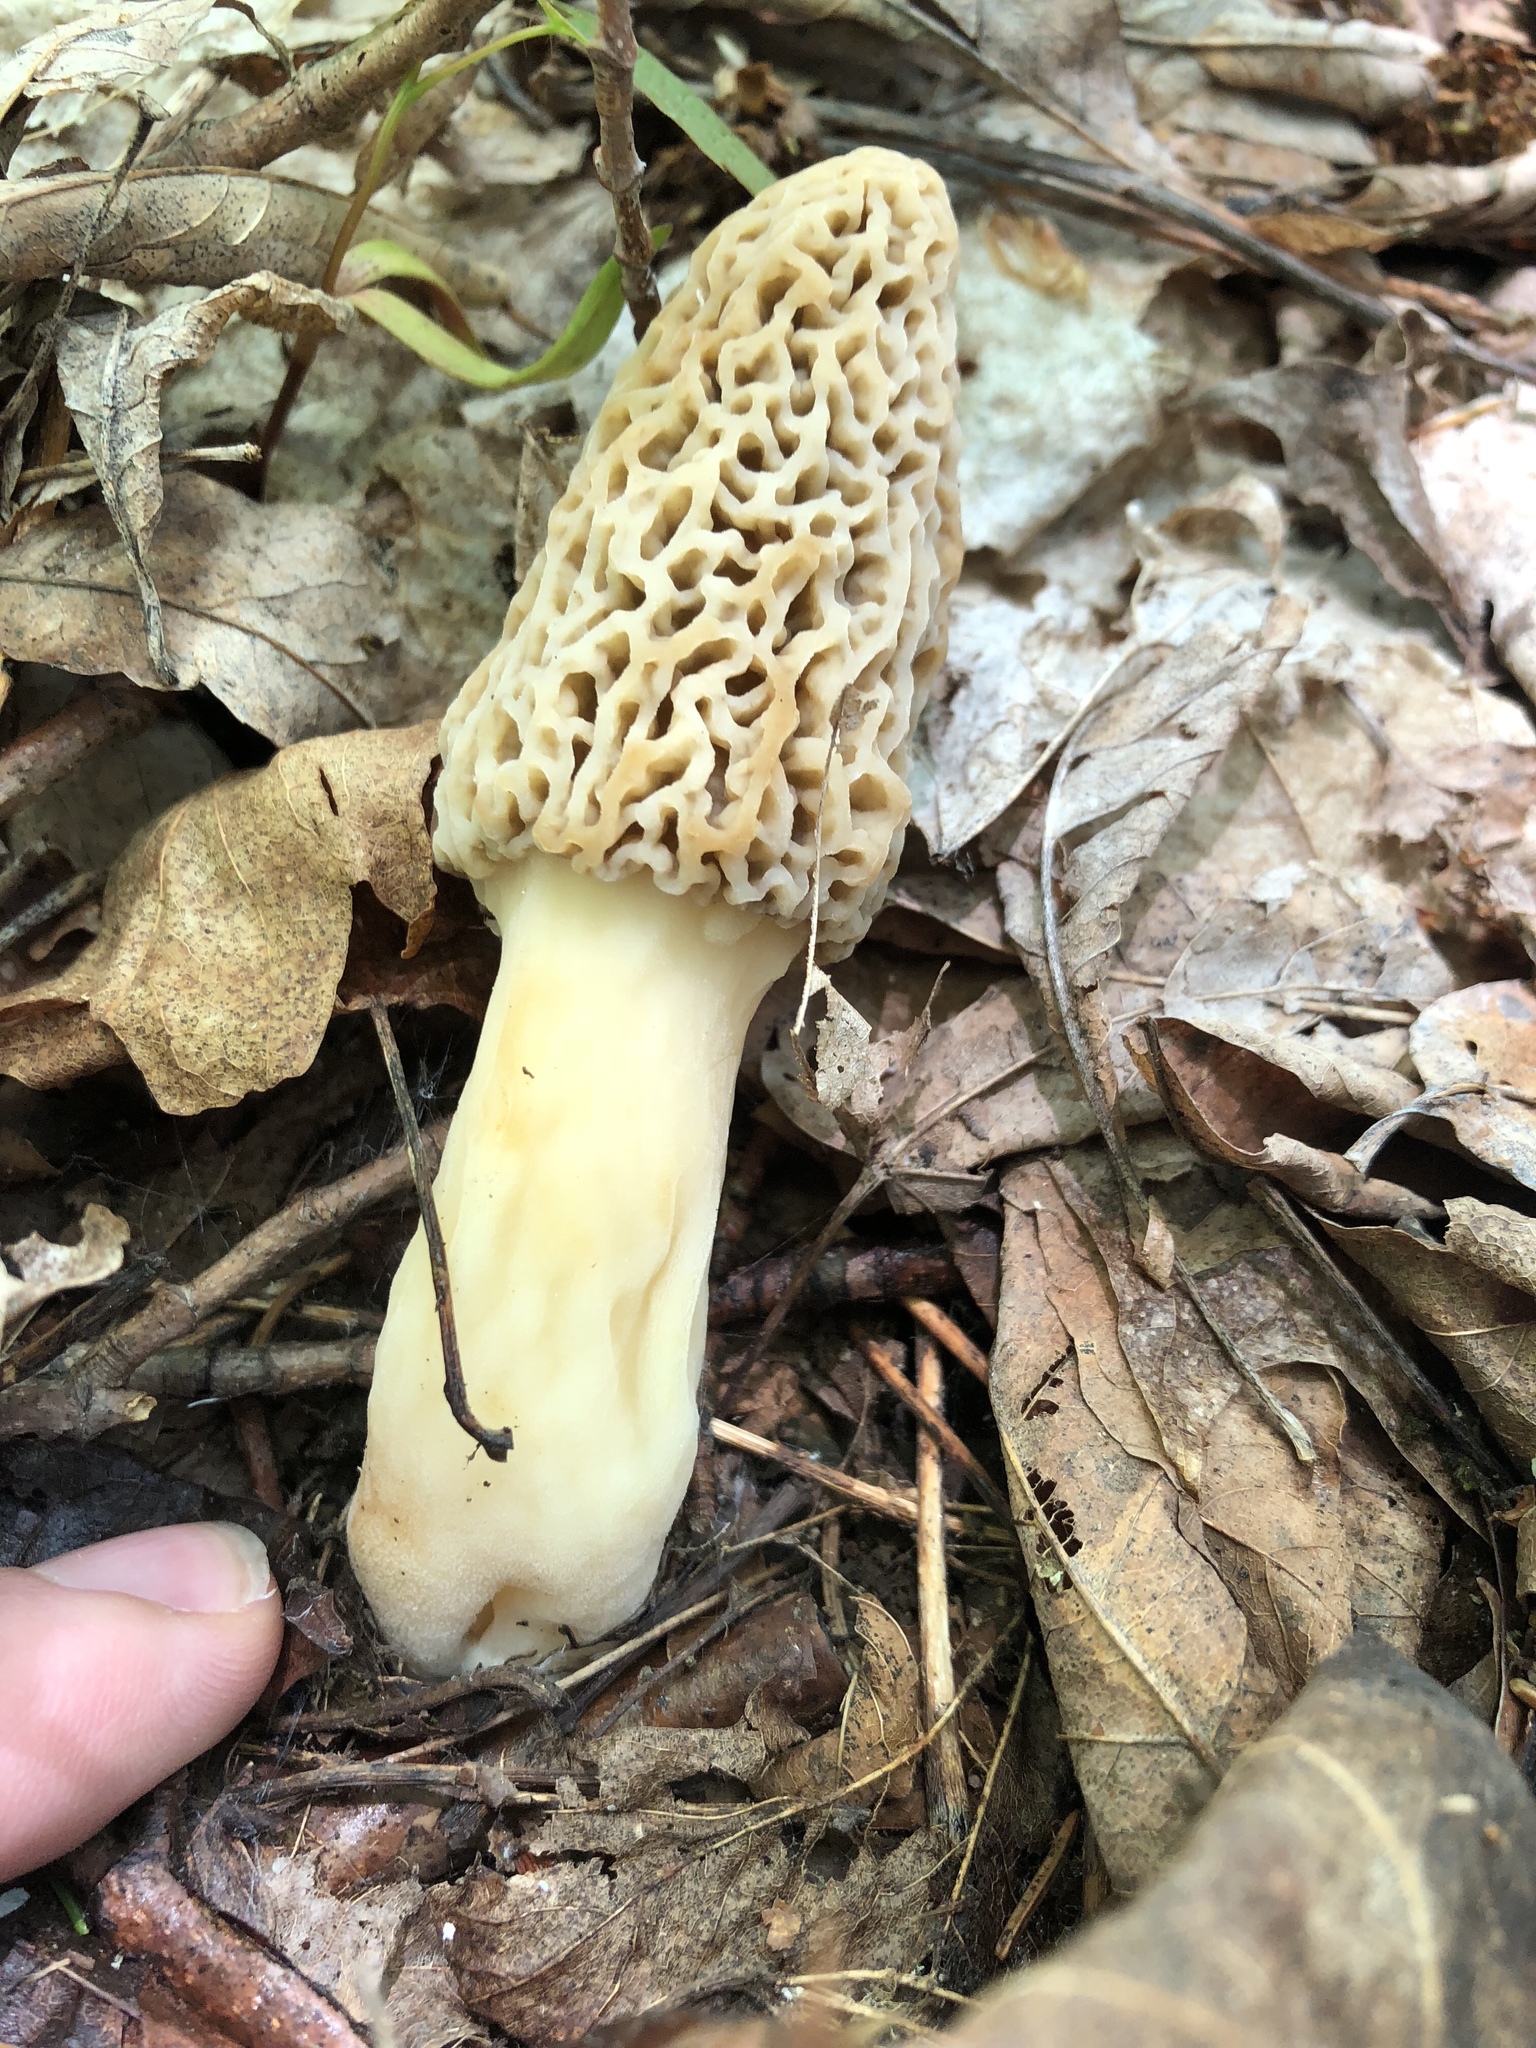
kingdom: Fungi
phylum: Ascomycota
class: Pezizomycetes
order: Pezizales
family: Morchellaceae
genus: Morchella
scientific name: Morchella americana
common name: White morel
